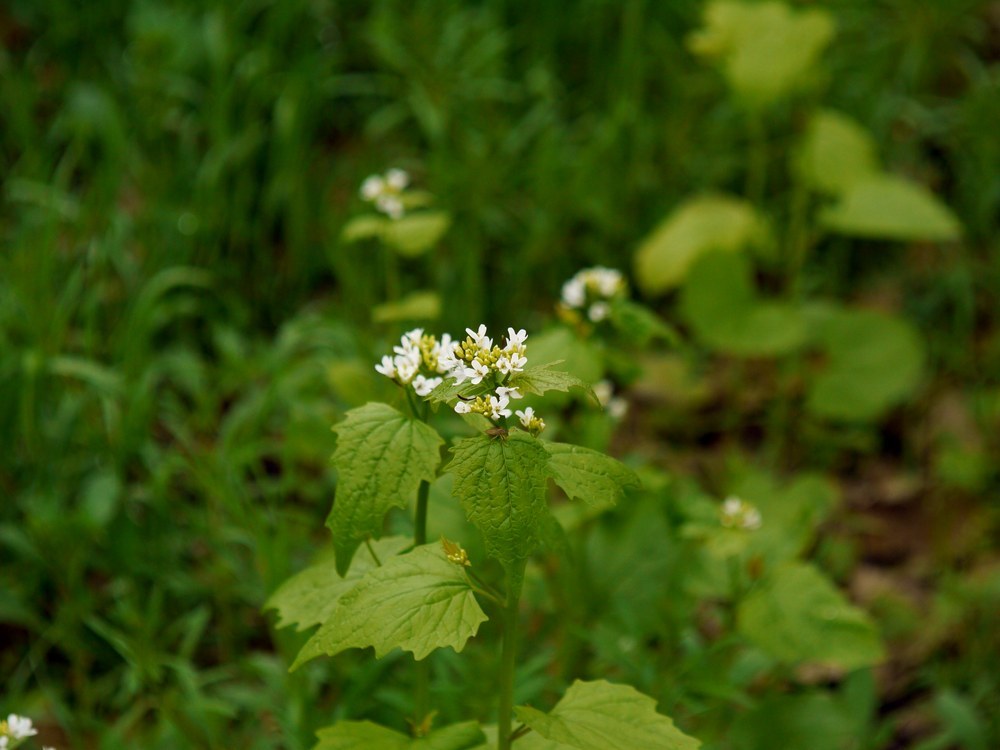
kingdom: Plantae
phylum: Tracheophyta
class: Magnoliopsida
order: Brassicales
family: Brassicaceae
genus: Alliaria
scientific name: Alliaria petiolata
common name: Garlic mustard
